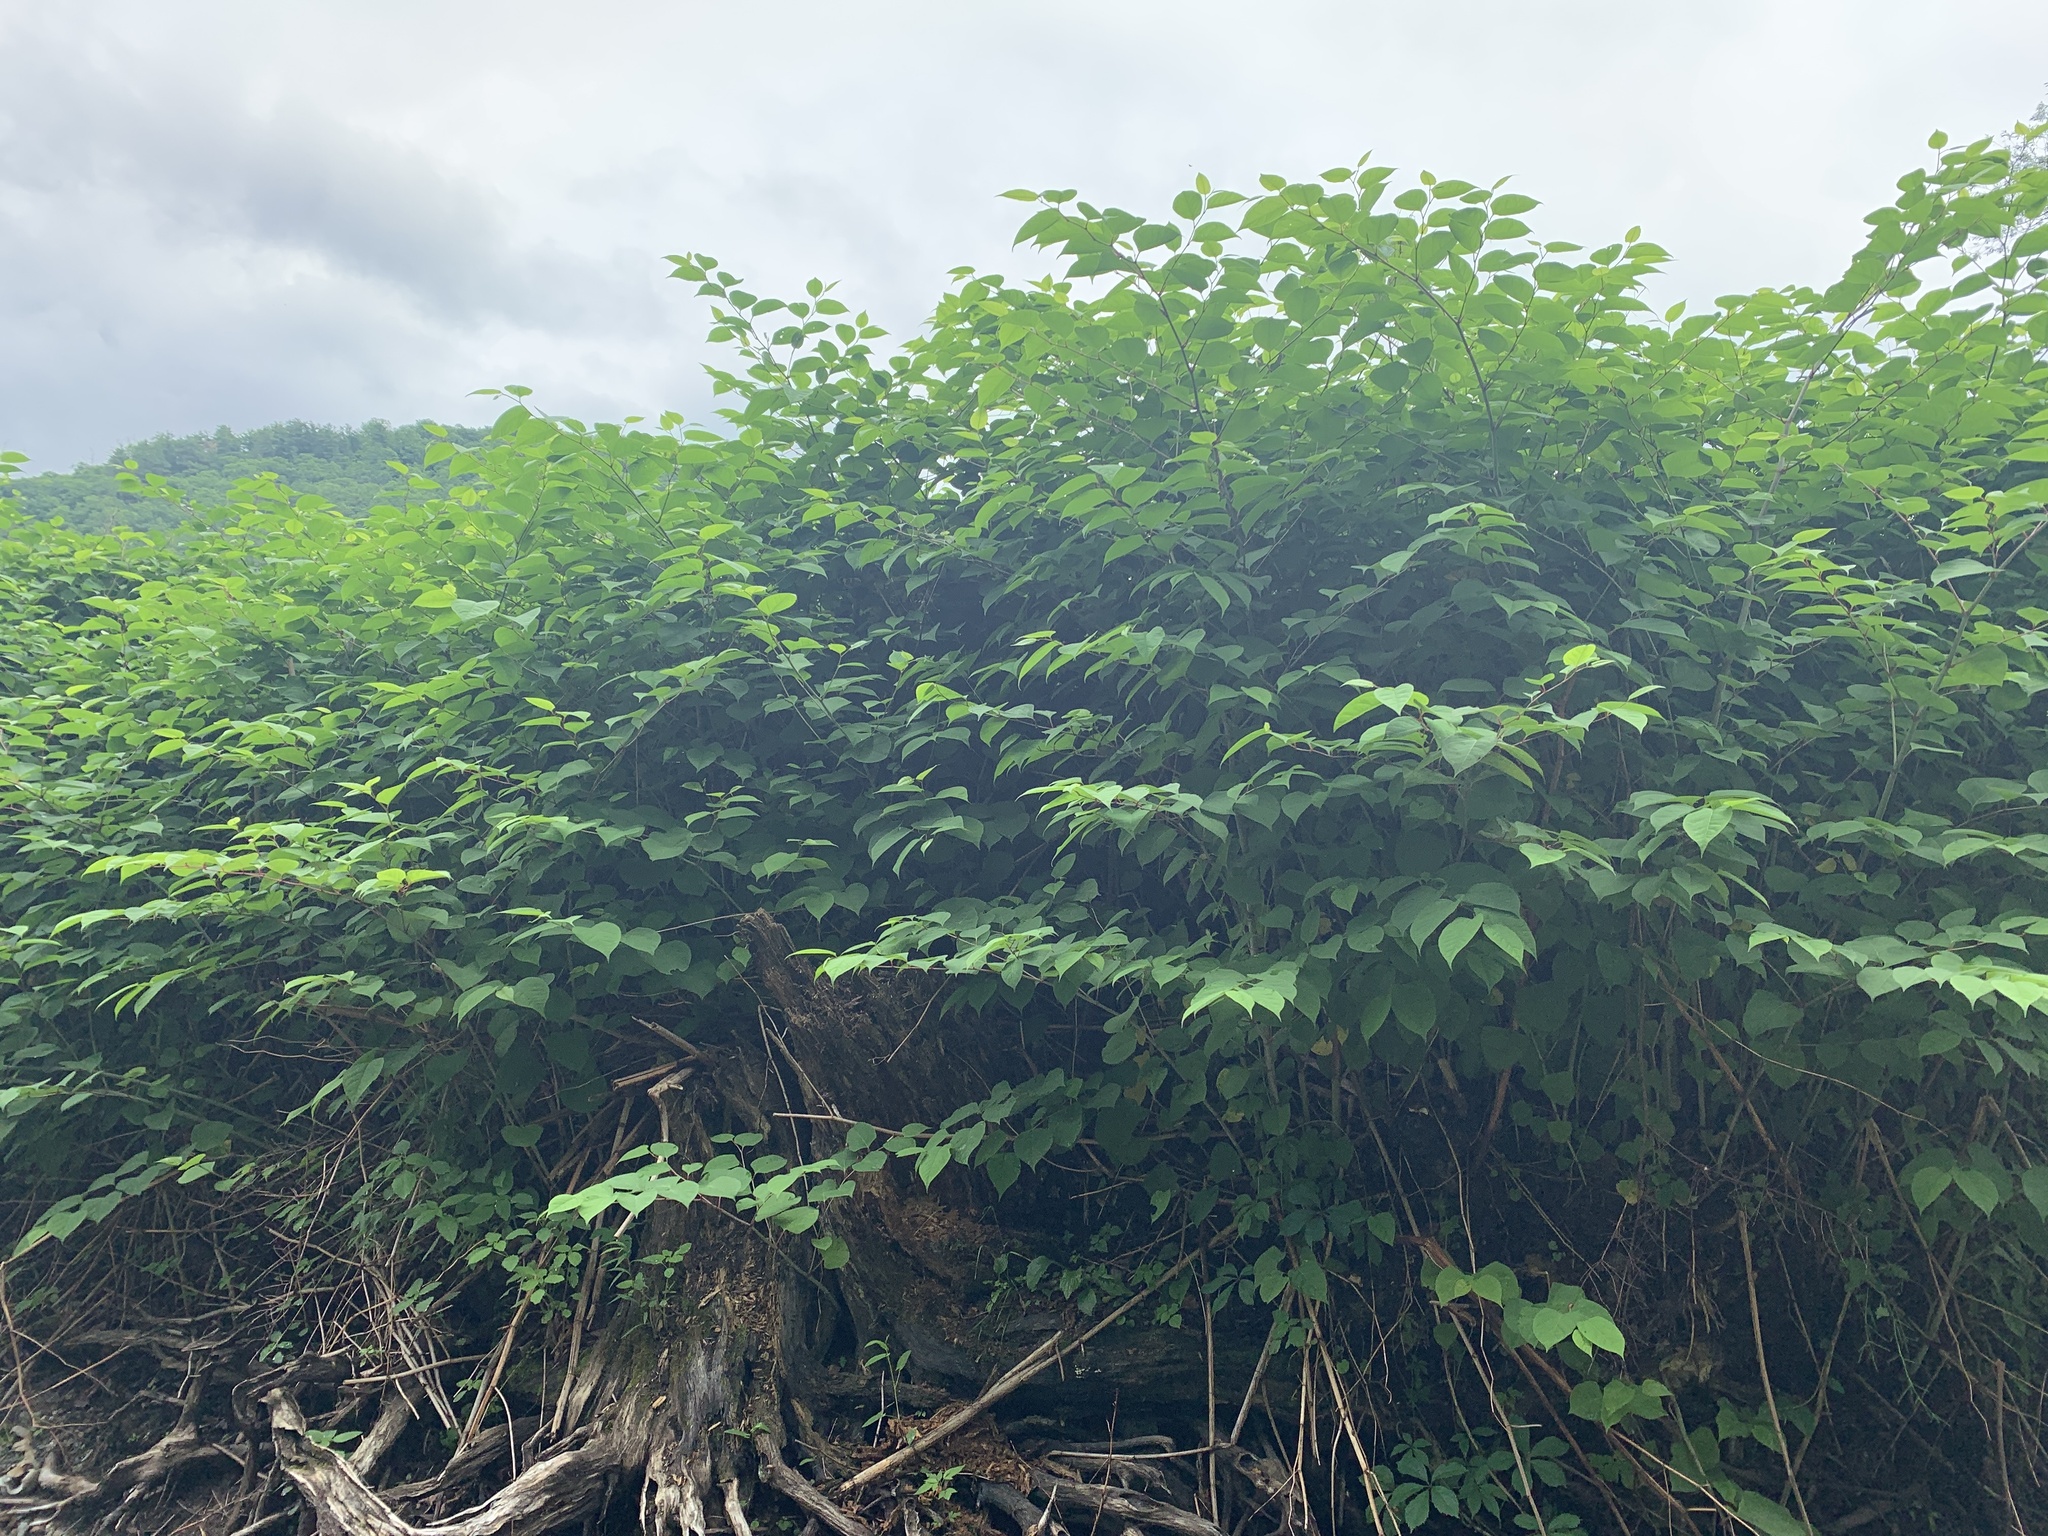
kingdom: Plantae
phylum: Tracheophyta
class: Magnoliopsida
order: Caryophyllales
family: Polygonaceae
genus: Reynoutria
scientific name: Reynoutria japonica
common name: Japanese knotweed
